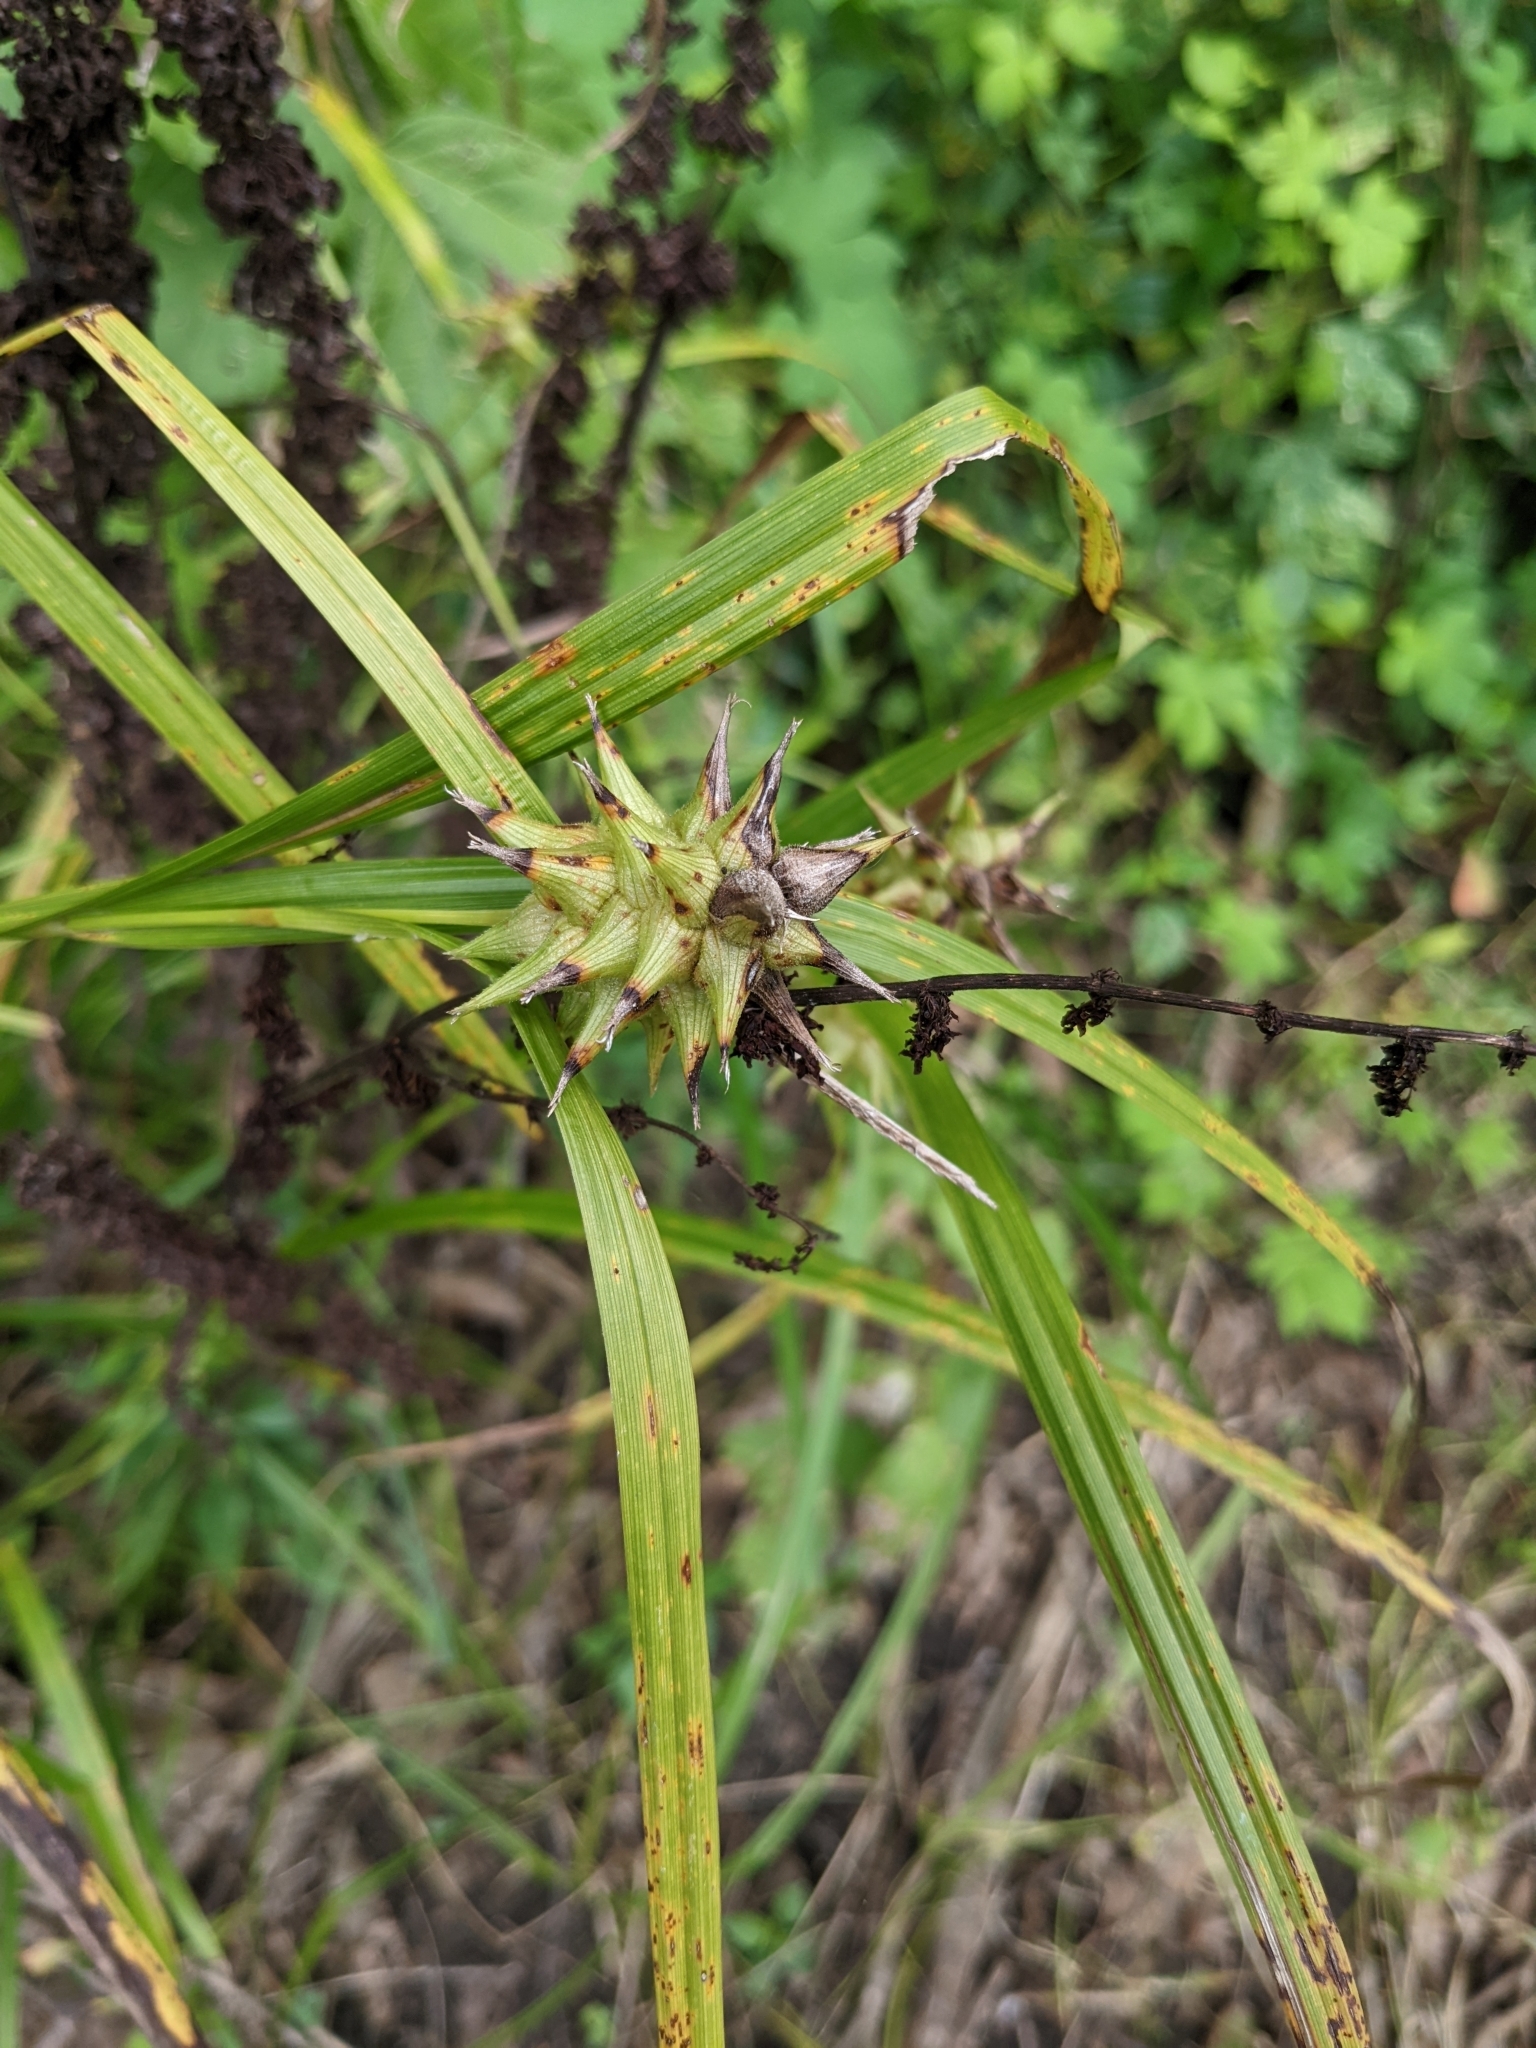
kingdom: Plantae
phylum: Tracheophyta
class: Liliopsida
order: Poales
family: Cyperaceae
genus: Carex
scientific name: Carex grayi
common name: Asa gray's sedge
